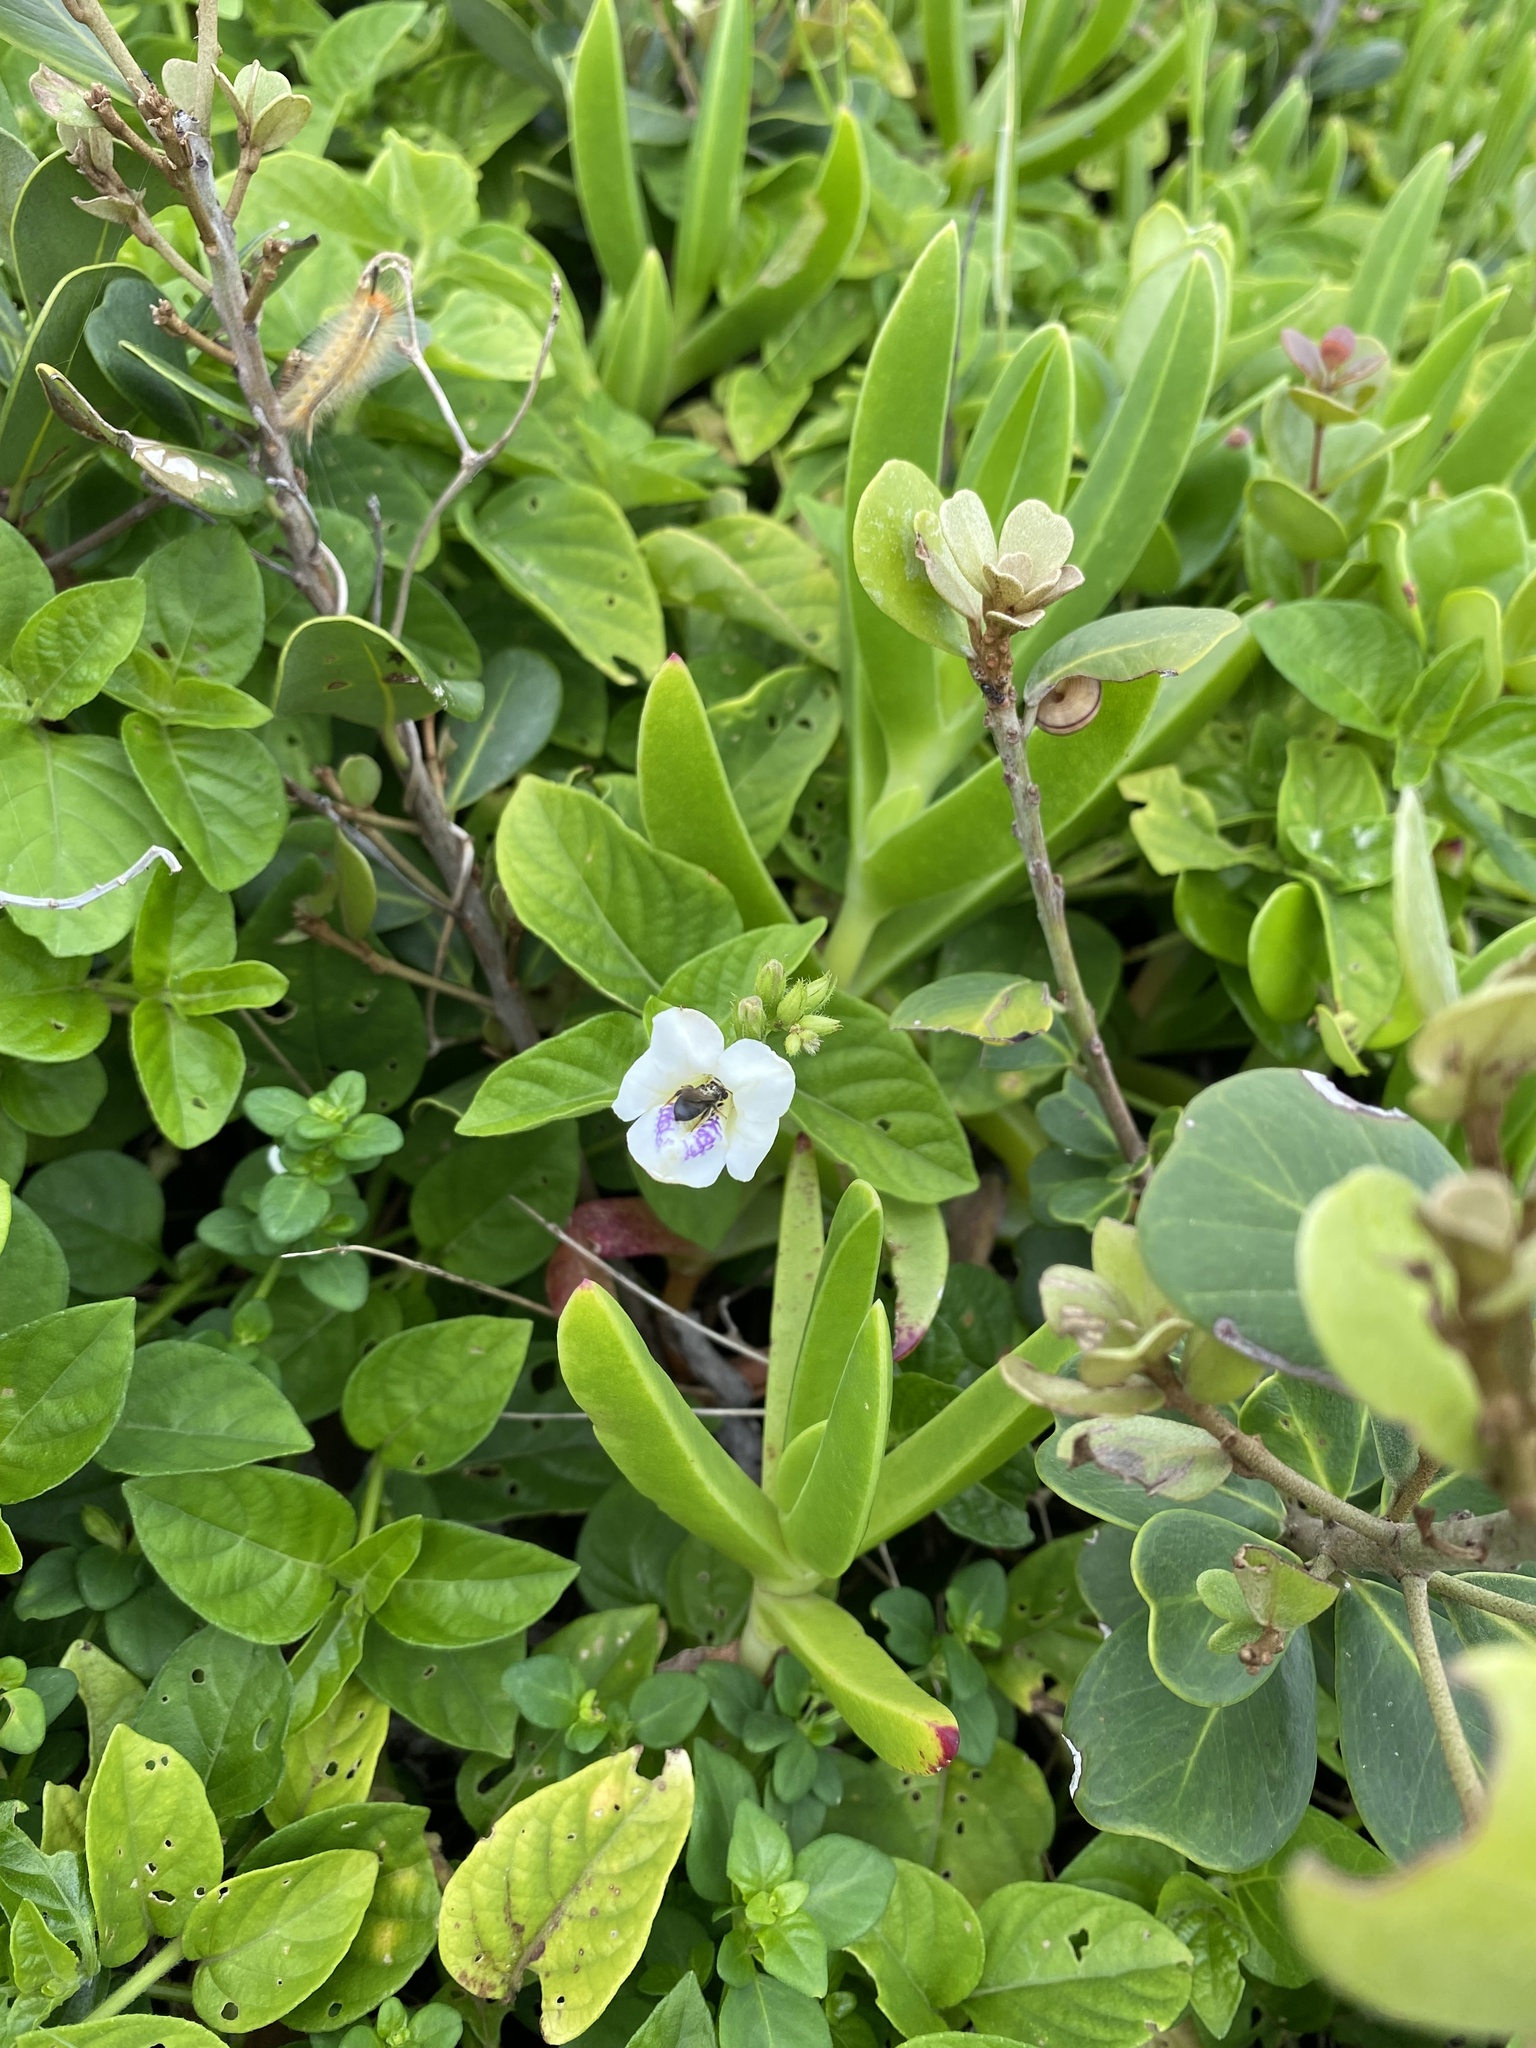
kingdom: Plantae
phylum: Tracheophyta
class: Magnoliopsida
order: Lamiales
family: Acanthaceae
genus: Asystasia
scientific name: Asystasia intrusa
